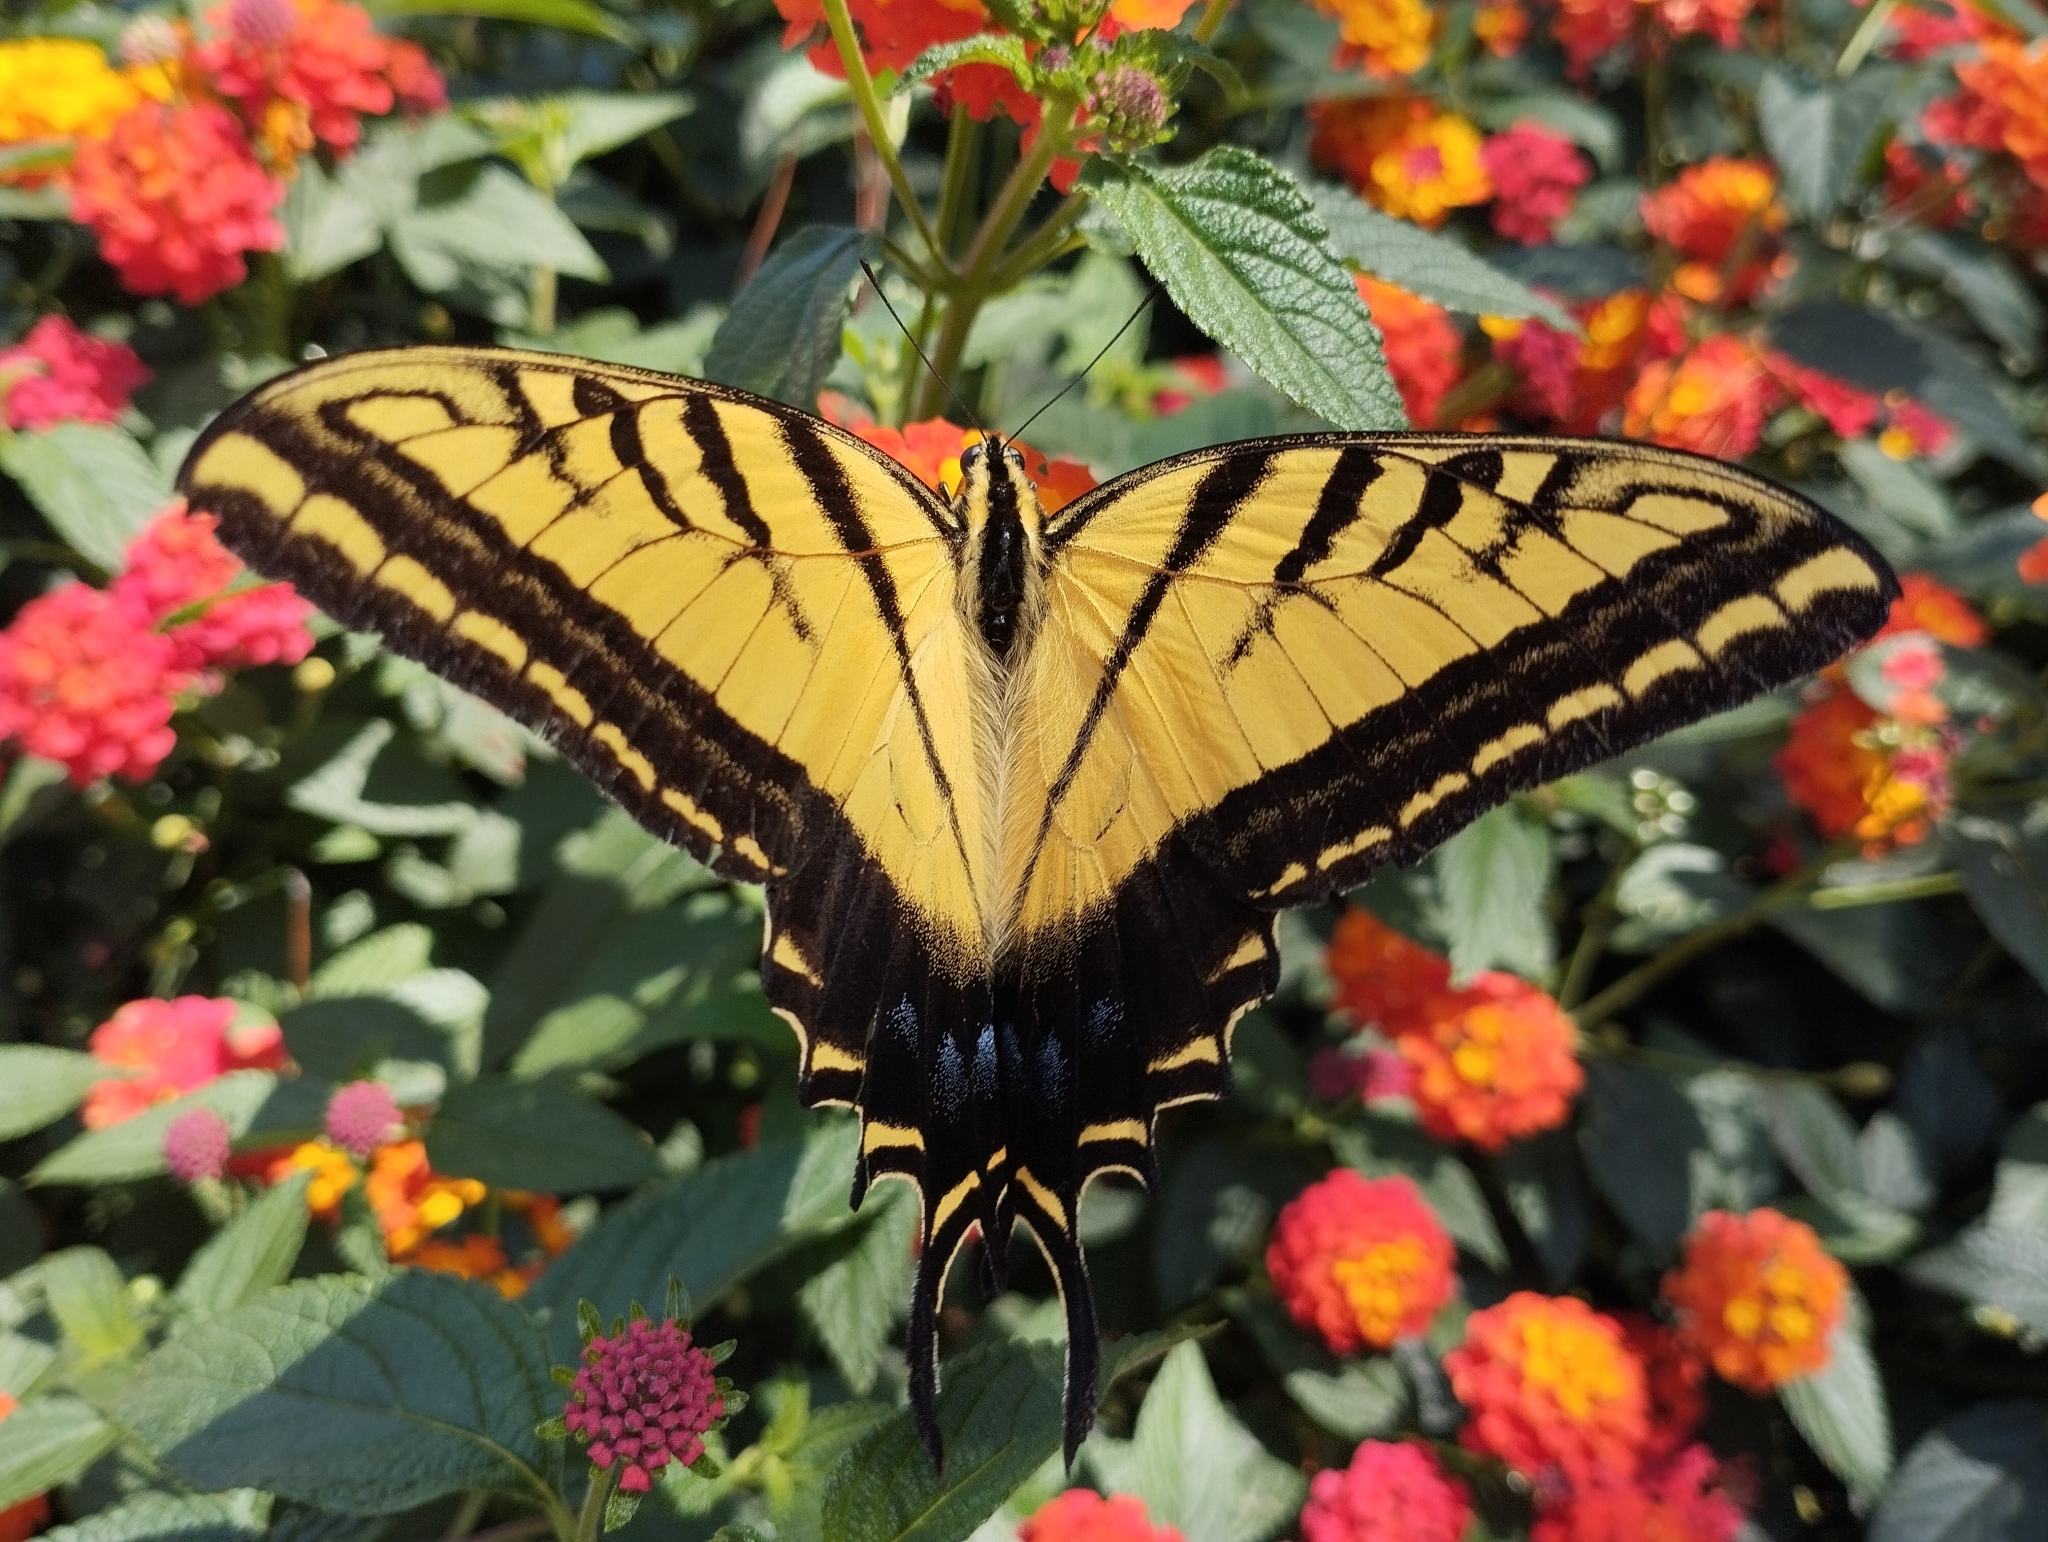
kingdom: Animalia
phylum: Arthropoda
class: Insecta
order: Lepidoptera
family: Papilionidae
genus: Papilio
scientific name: Papilio multicaudata
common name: Two-tailed tiger swallowtail
